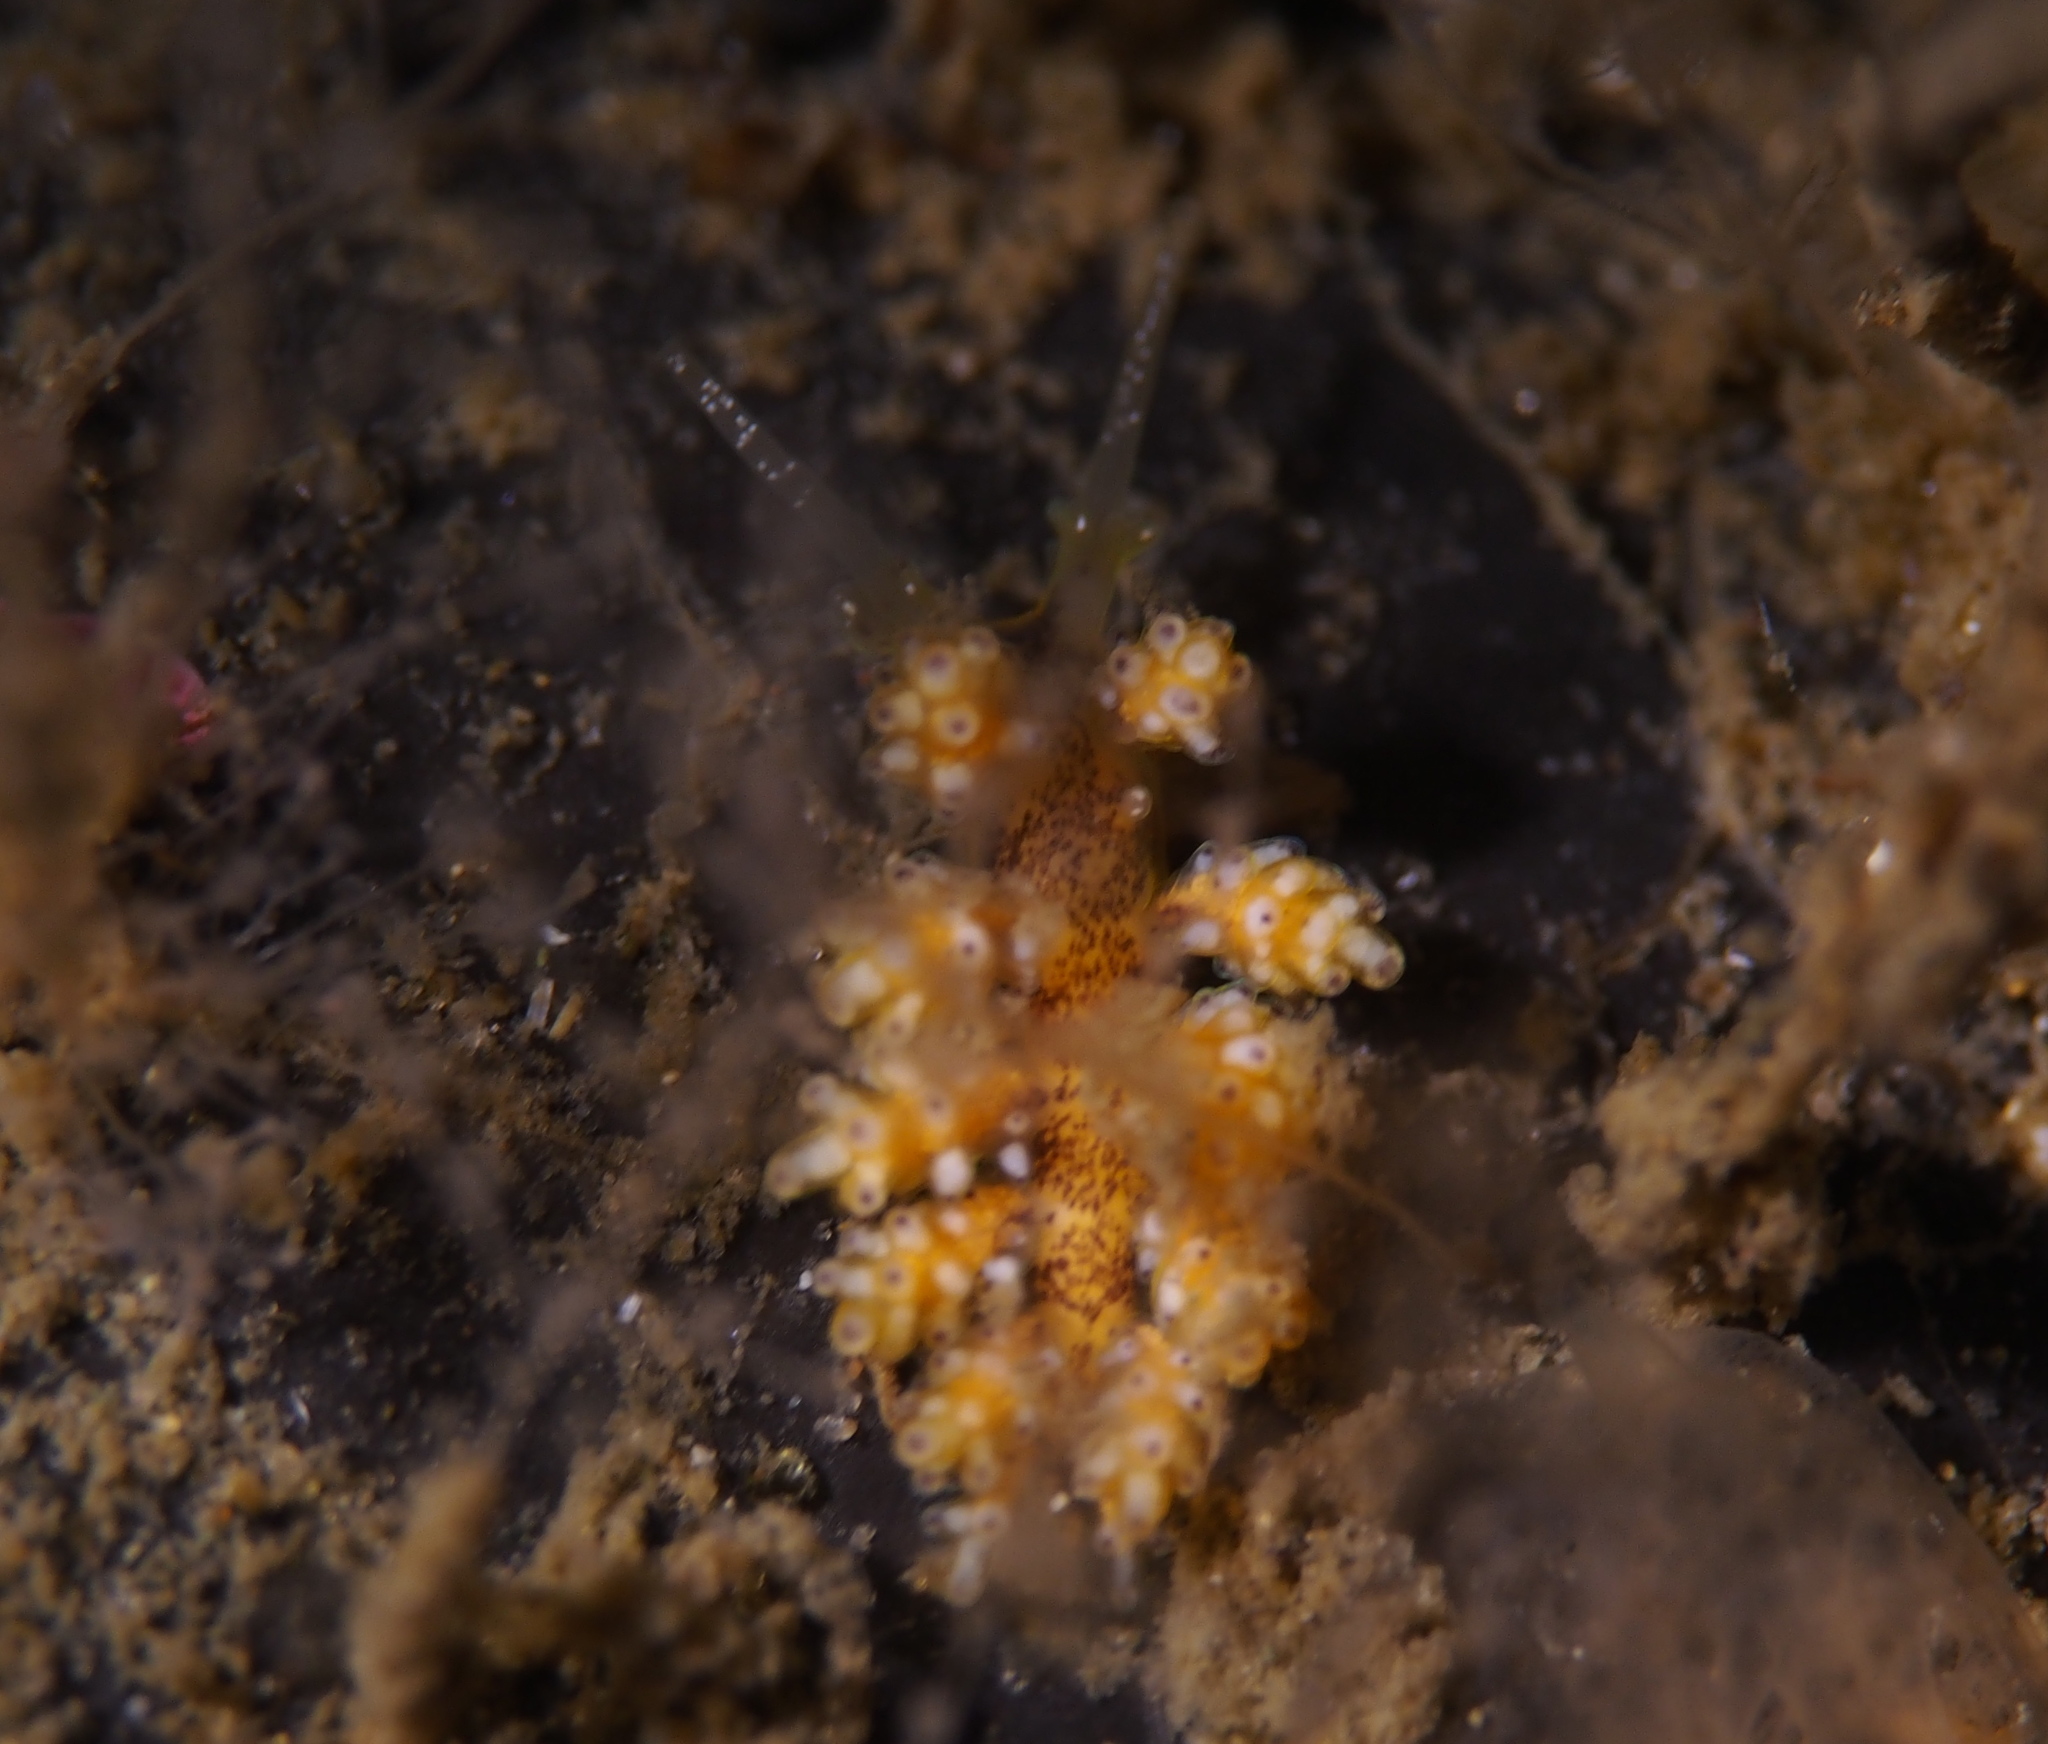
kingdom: Animalia
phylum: Mollusca
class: Gastropoda
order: Nudibranchia
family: Dotidae
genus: Doto
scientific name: Doto maculata
